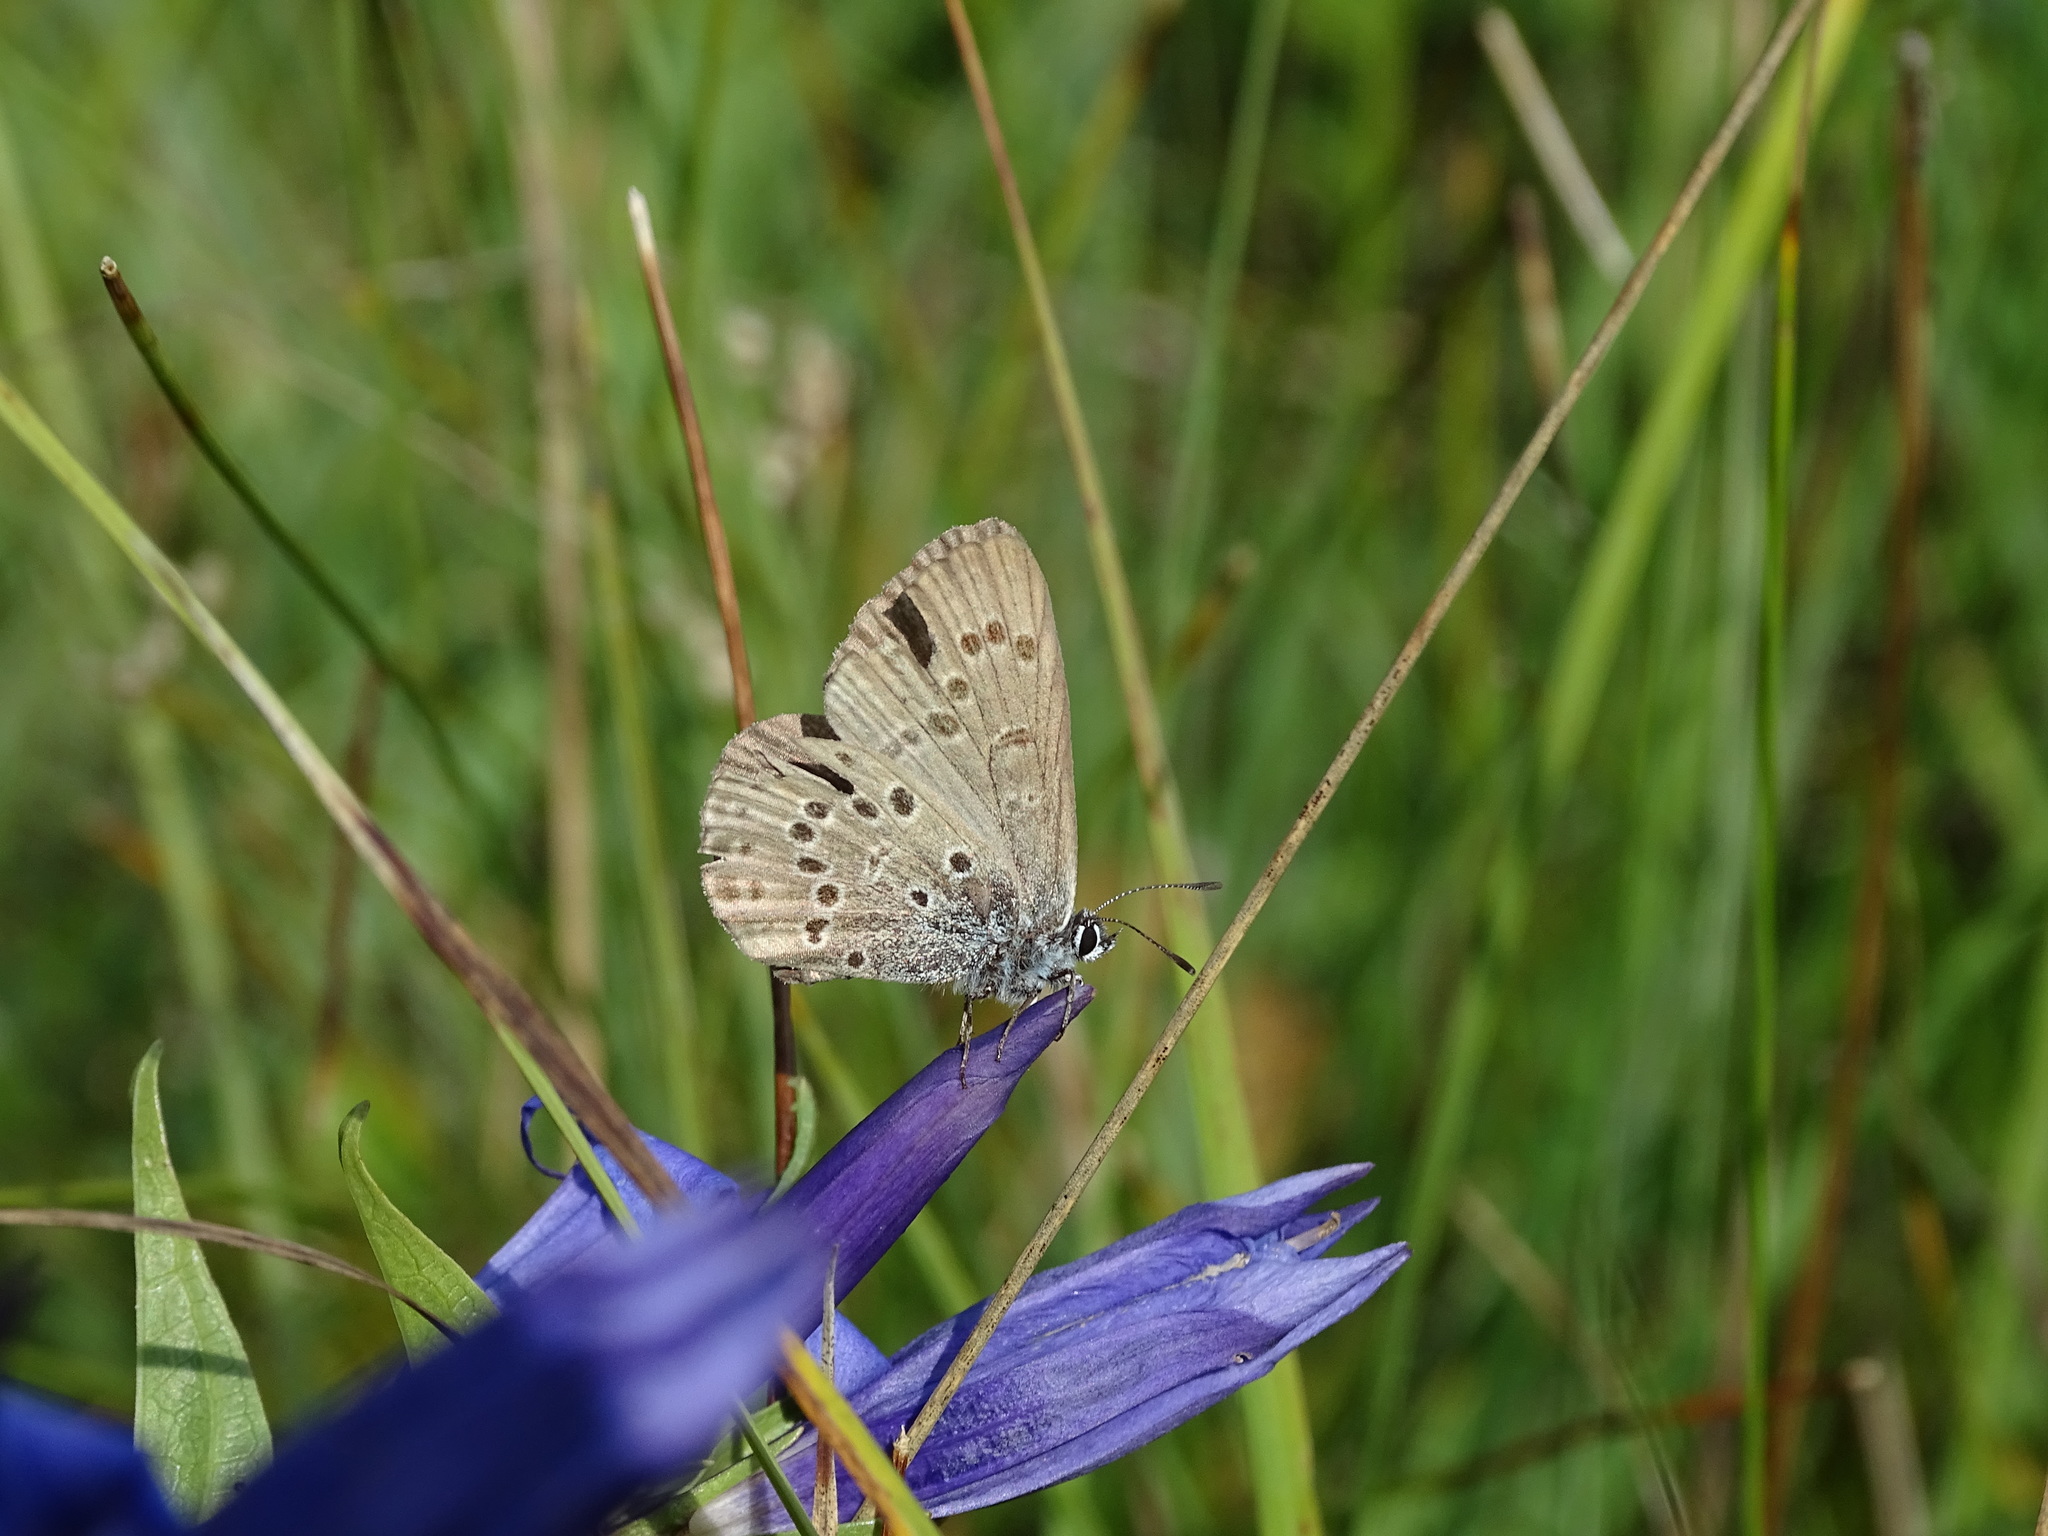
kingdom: Animalia
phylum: Arthropoda
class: Insecta
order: Lepidoptera
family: Lycaenidae
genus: Maculinea
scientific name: Maculinea alcon
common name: Alcon blue
